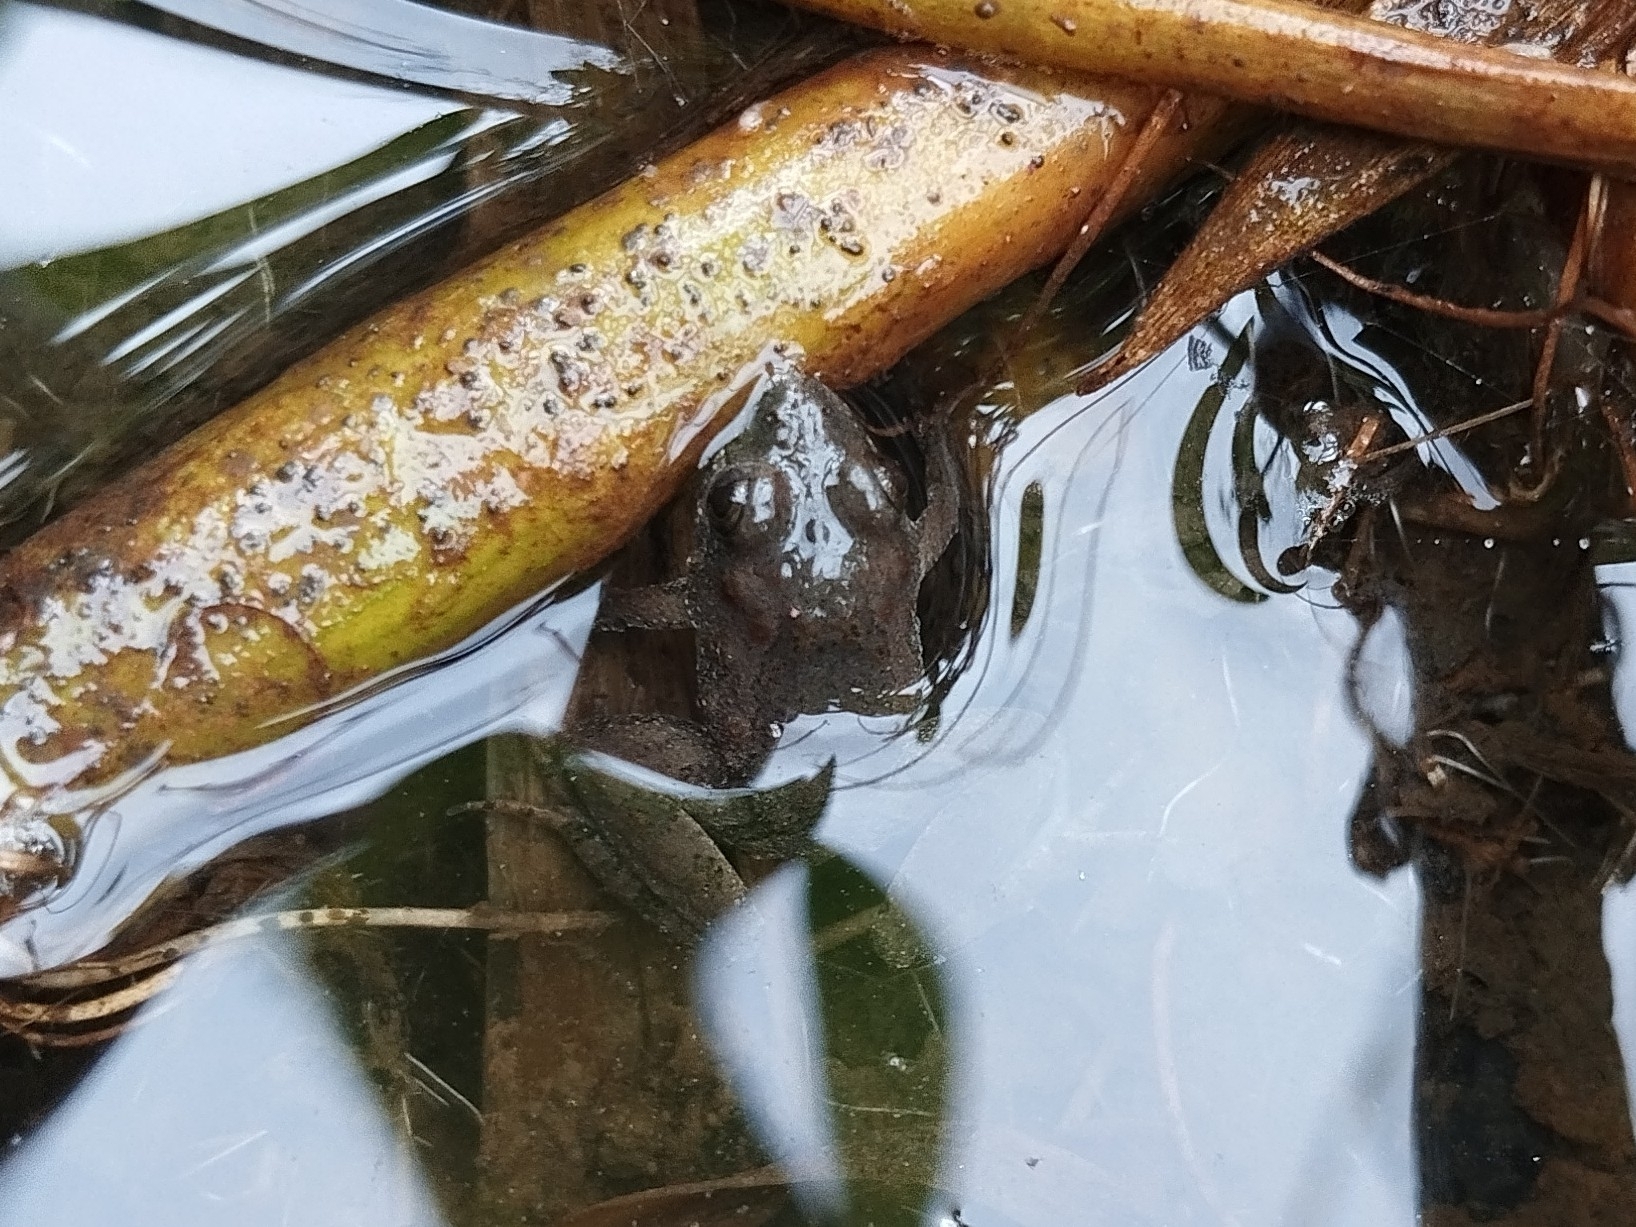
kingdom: Animalia
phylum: Chordata
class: Amphibia
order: Anura
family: Leptodactylidae
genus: Pseudopaludicola
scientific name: Pseudopaludicola restinga
